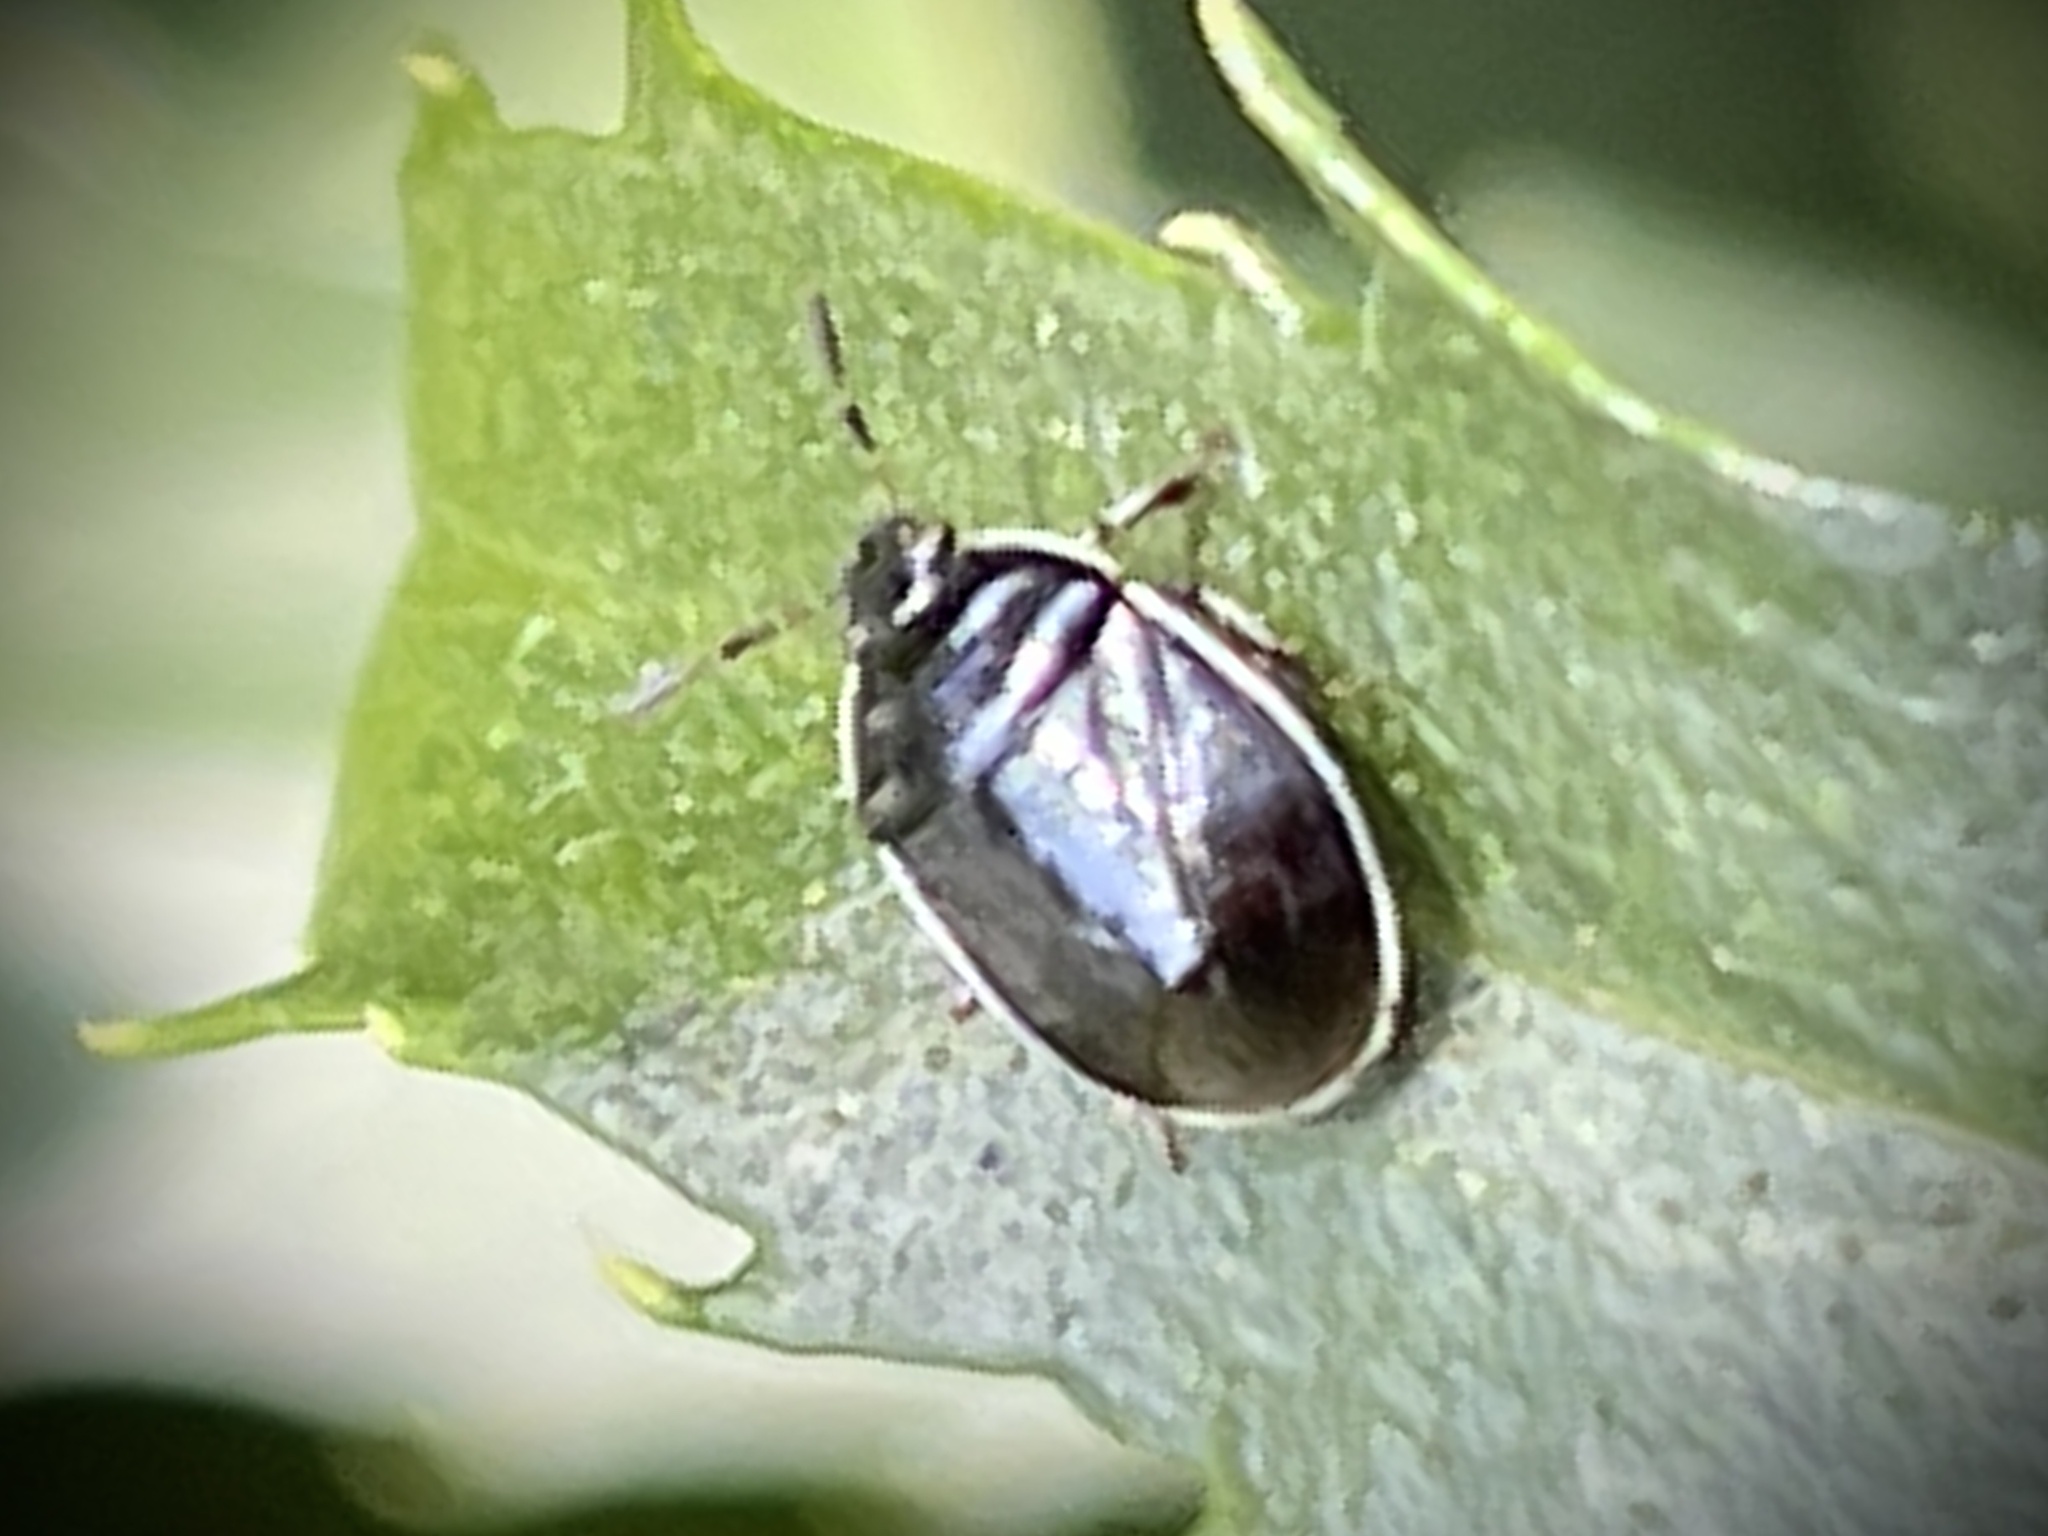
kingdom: Animalia
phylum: Arthropoda
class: Insecta
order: Hemiptera
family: Cydnidae
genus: Sehirus
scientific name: Sehirus cinctus
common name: White-margined burrower bug
